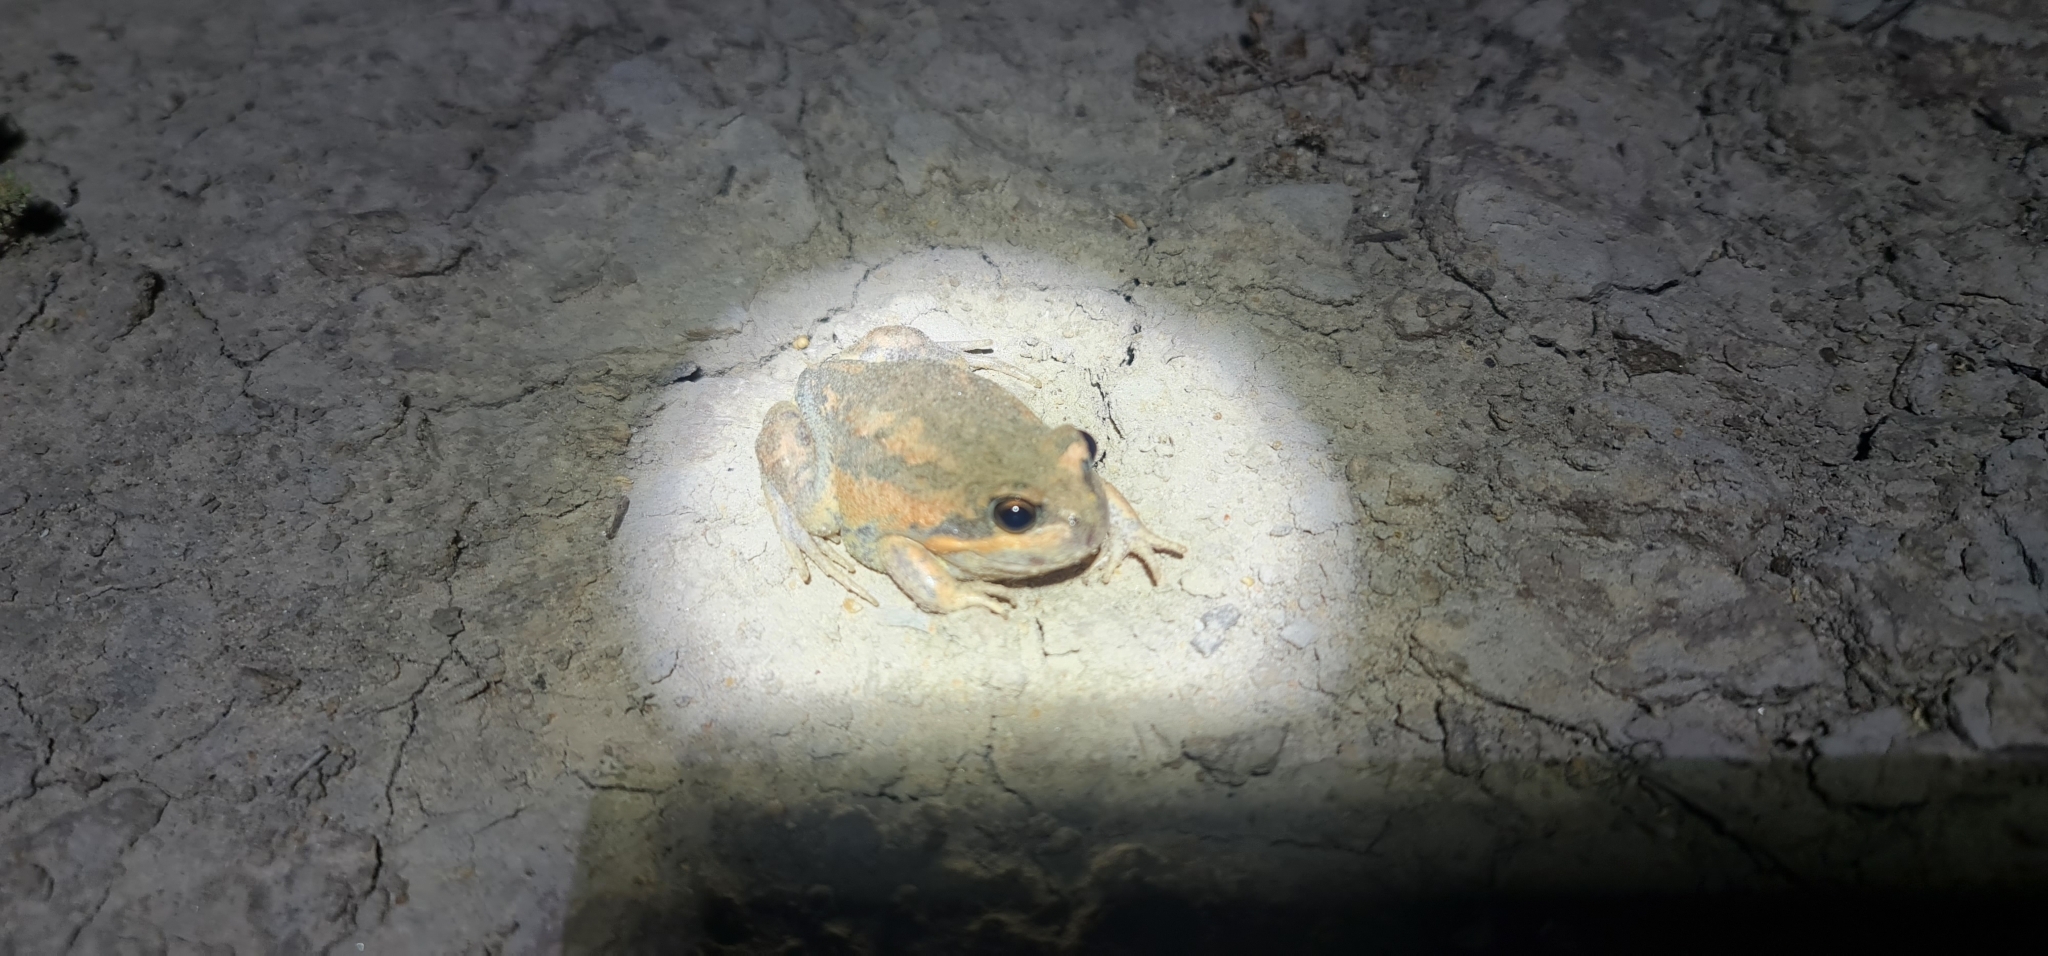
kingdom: Animalia
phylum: Chordata
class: Amphibia
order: Anura
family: Limnodynastidae
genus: Limnodynastes
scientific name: Limnodynastes dumerilii
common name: Banjo frog
